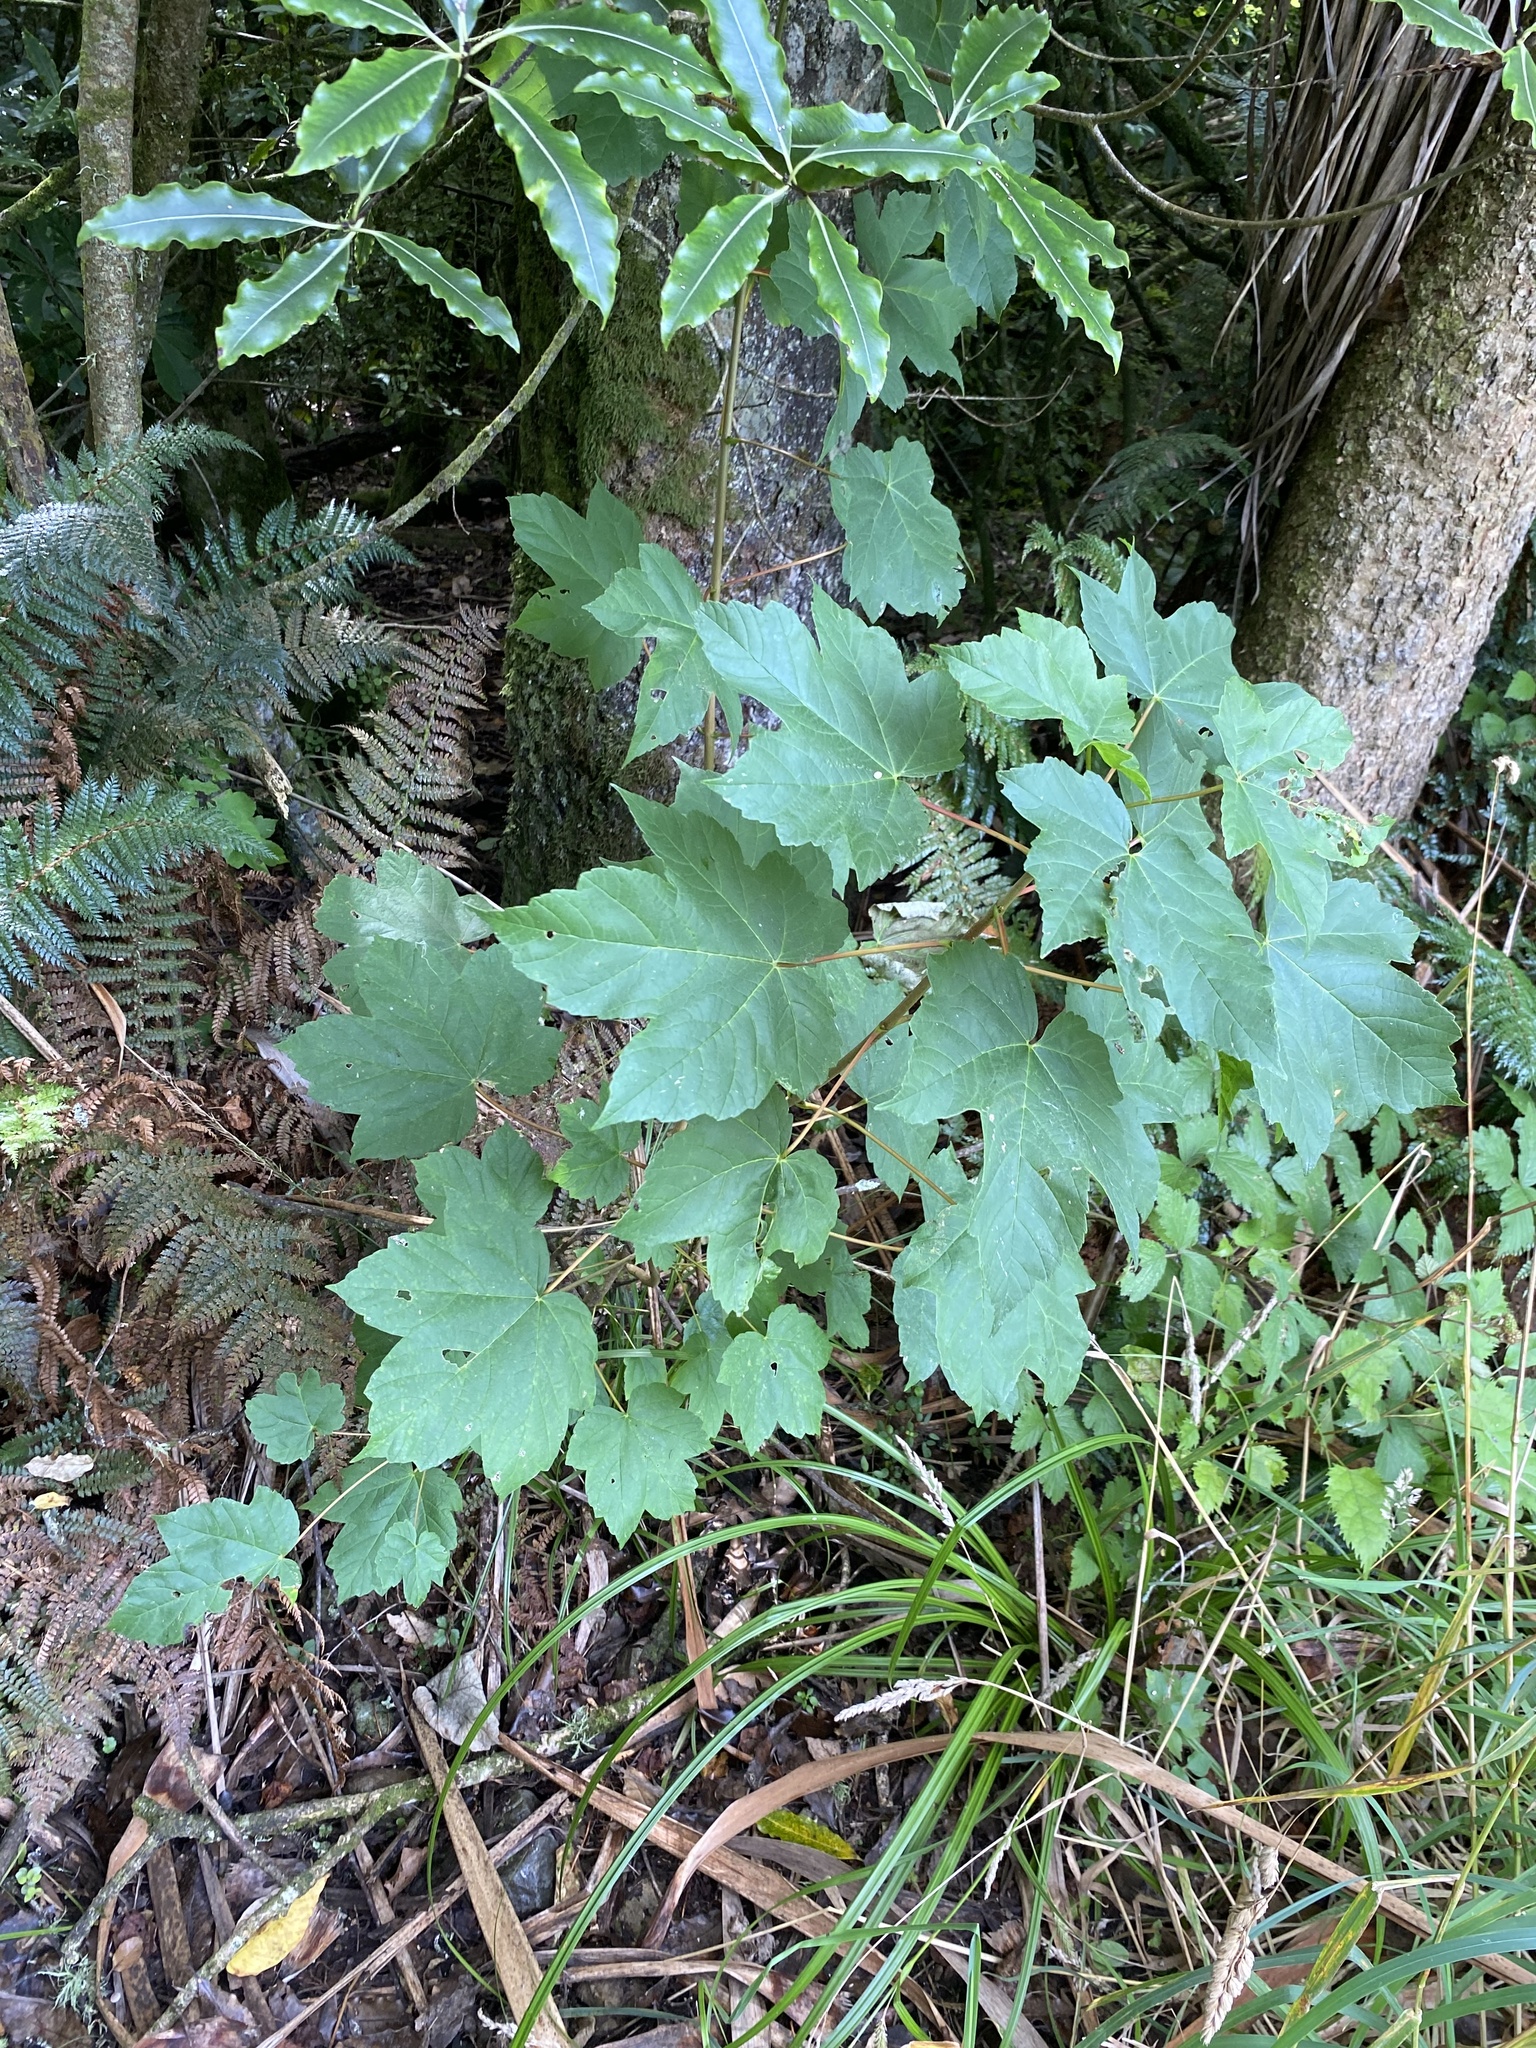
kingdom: Plantae
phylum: Tracheophyta
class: Magnoliopsida
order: Sapindales
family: Sapindaceae
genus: Acer
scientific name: Acer pseudoplatanus
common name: Sycamore
